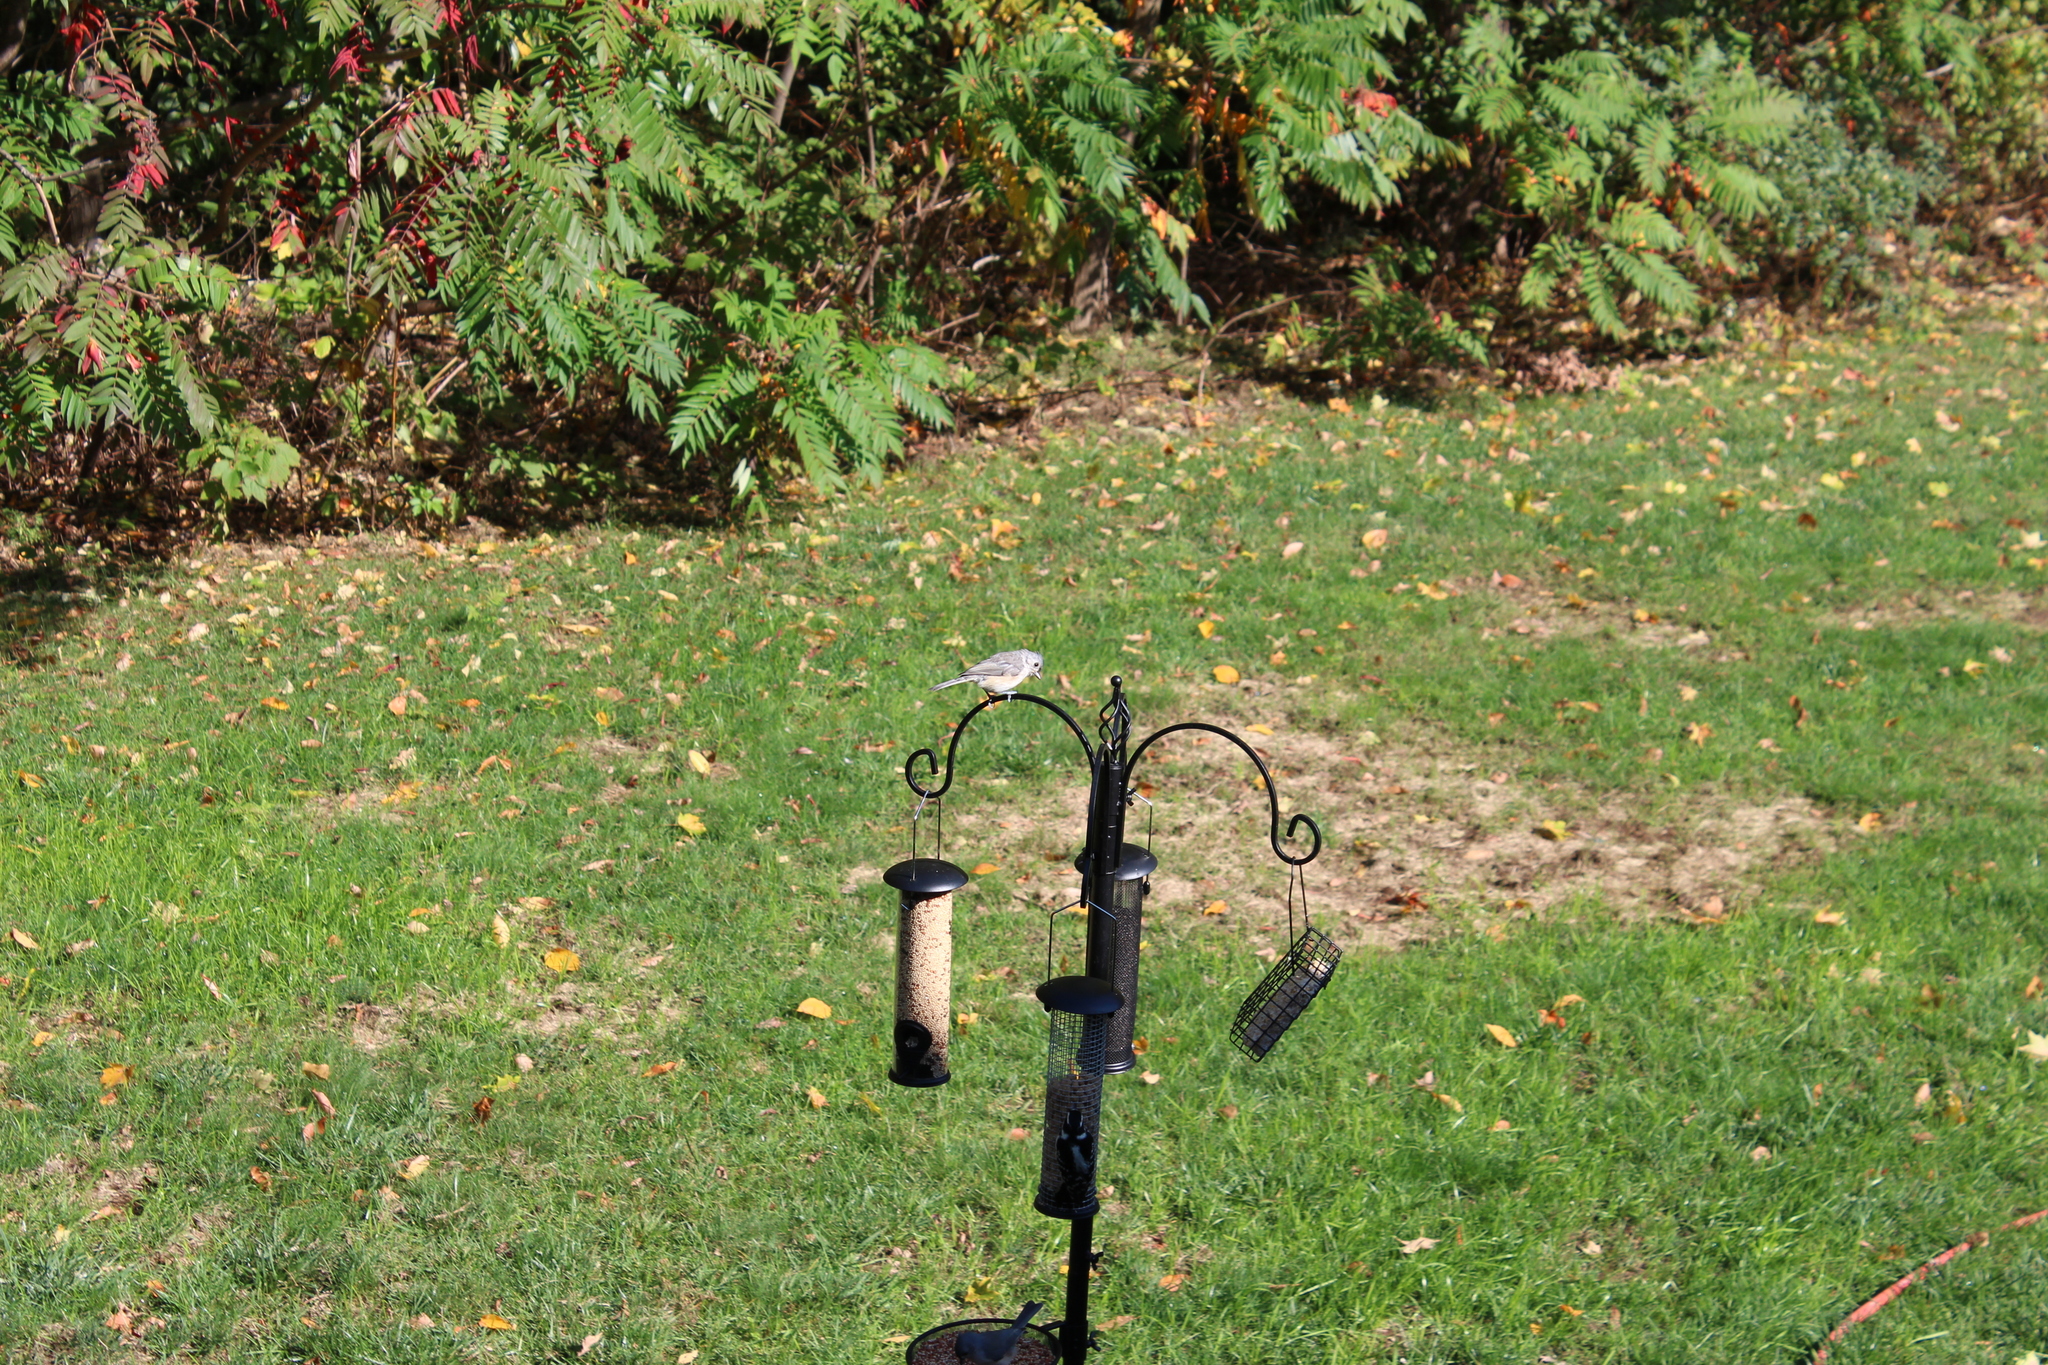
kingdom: Animalia
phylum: Chordata
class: Aves
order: Passeriformes
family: Paridae
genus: Baeolophus
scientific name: Baeolophus bicolor
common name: Tufted titmouse
